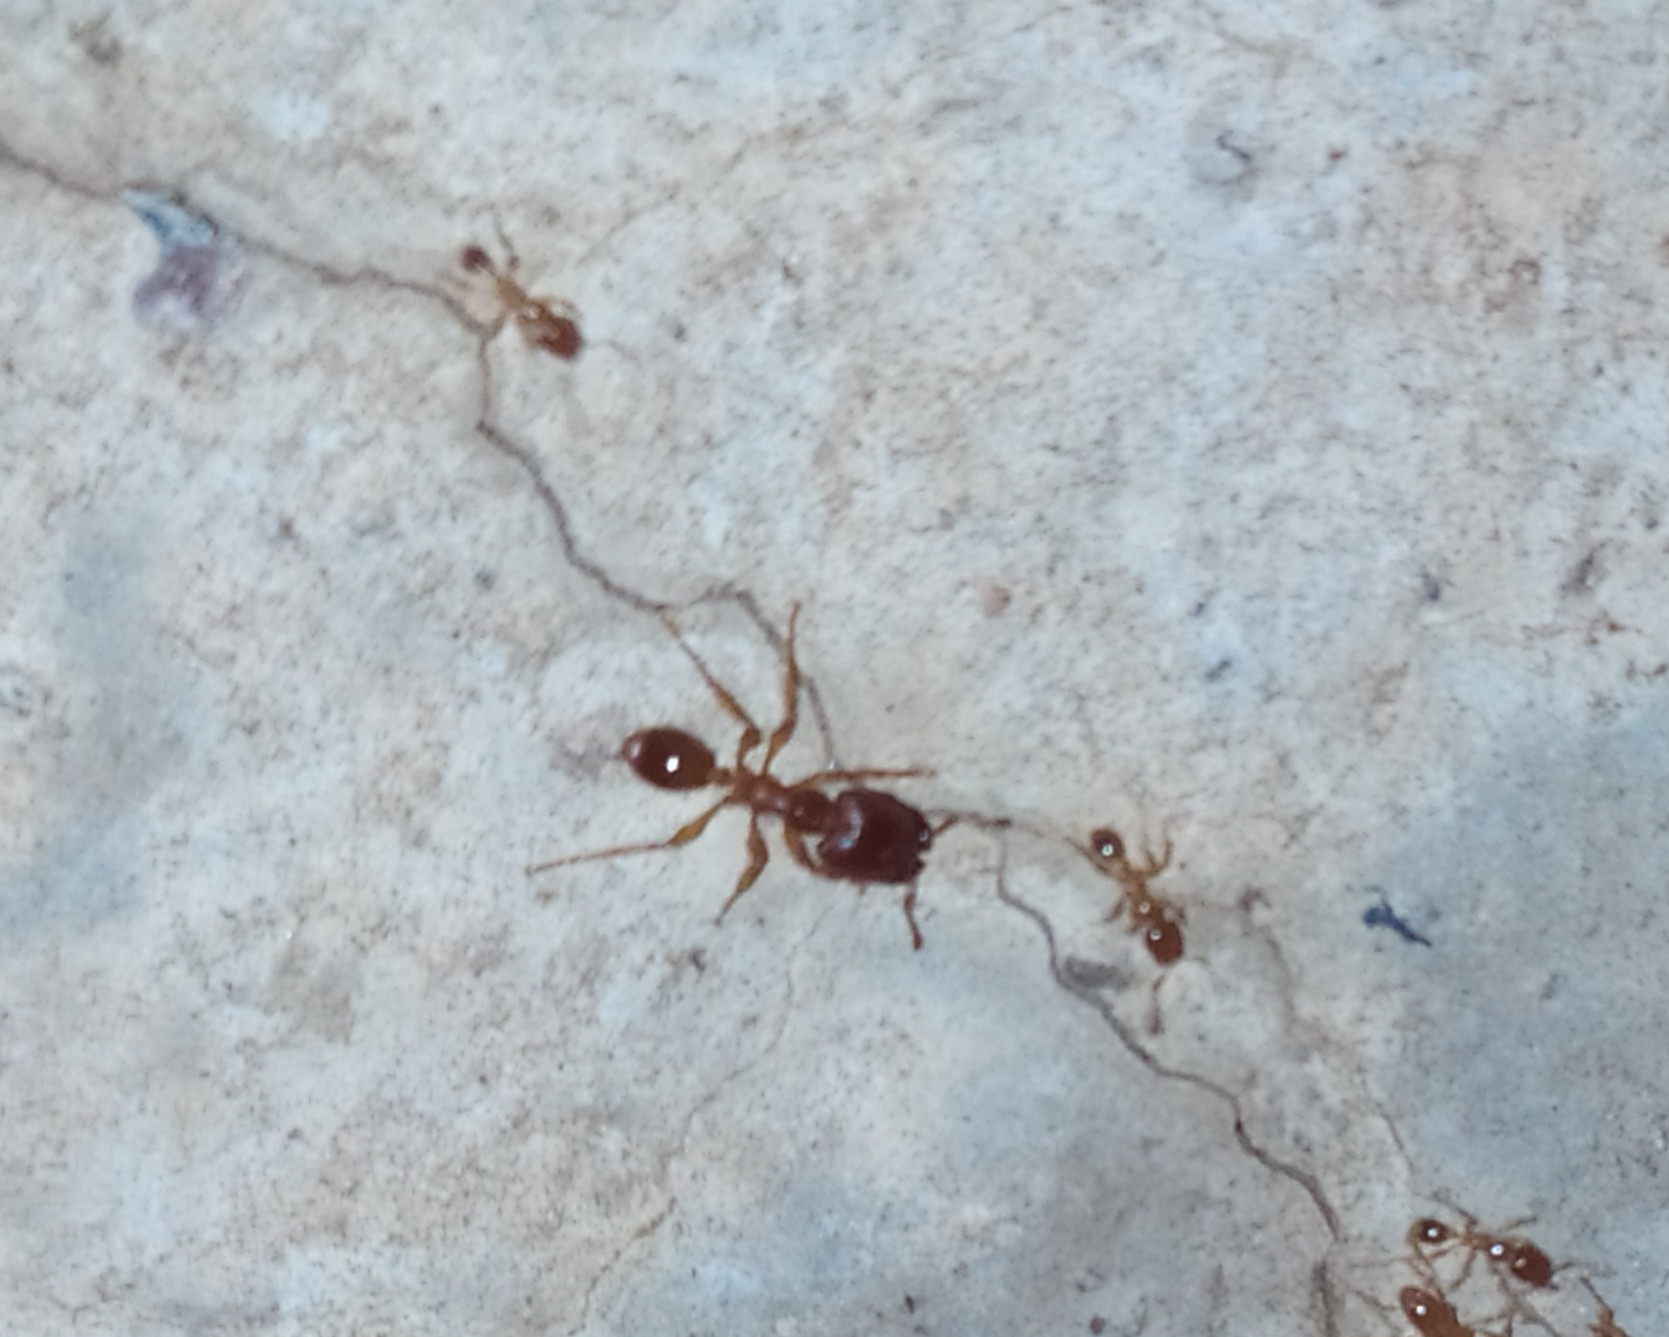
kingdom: Animalia
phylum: Arthropoda
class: Insecta
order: Hymenoptera
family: Formicidae
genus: Carebara
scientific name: Carebara affinis
